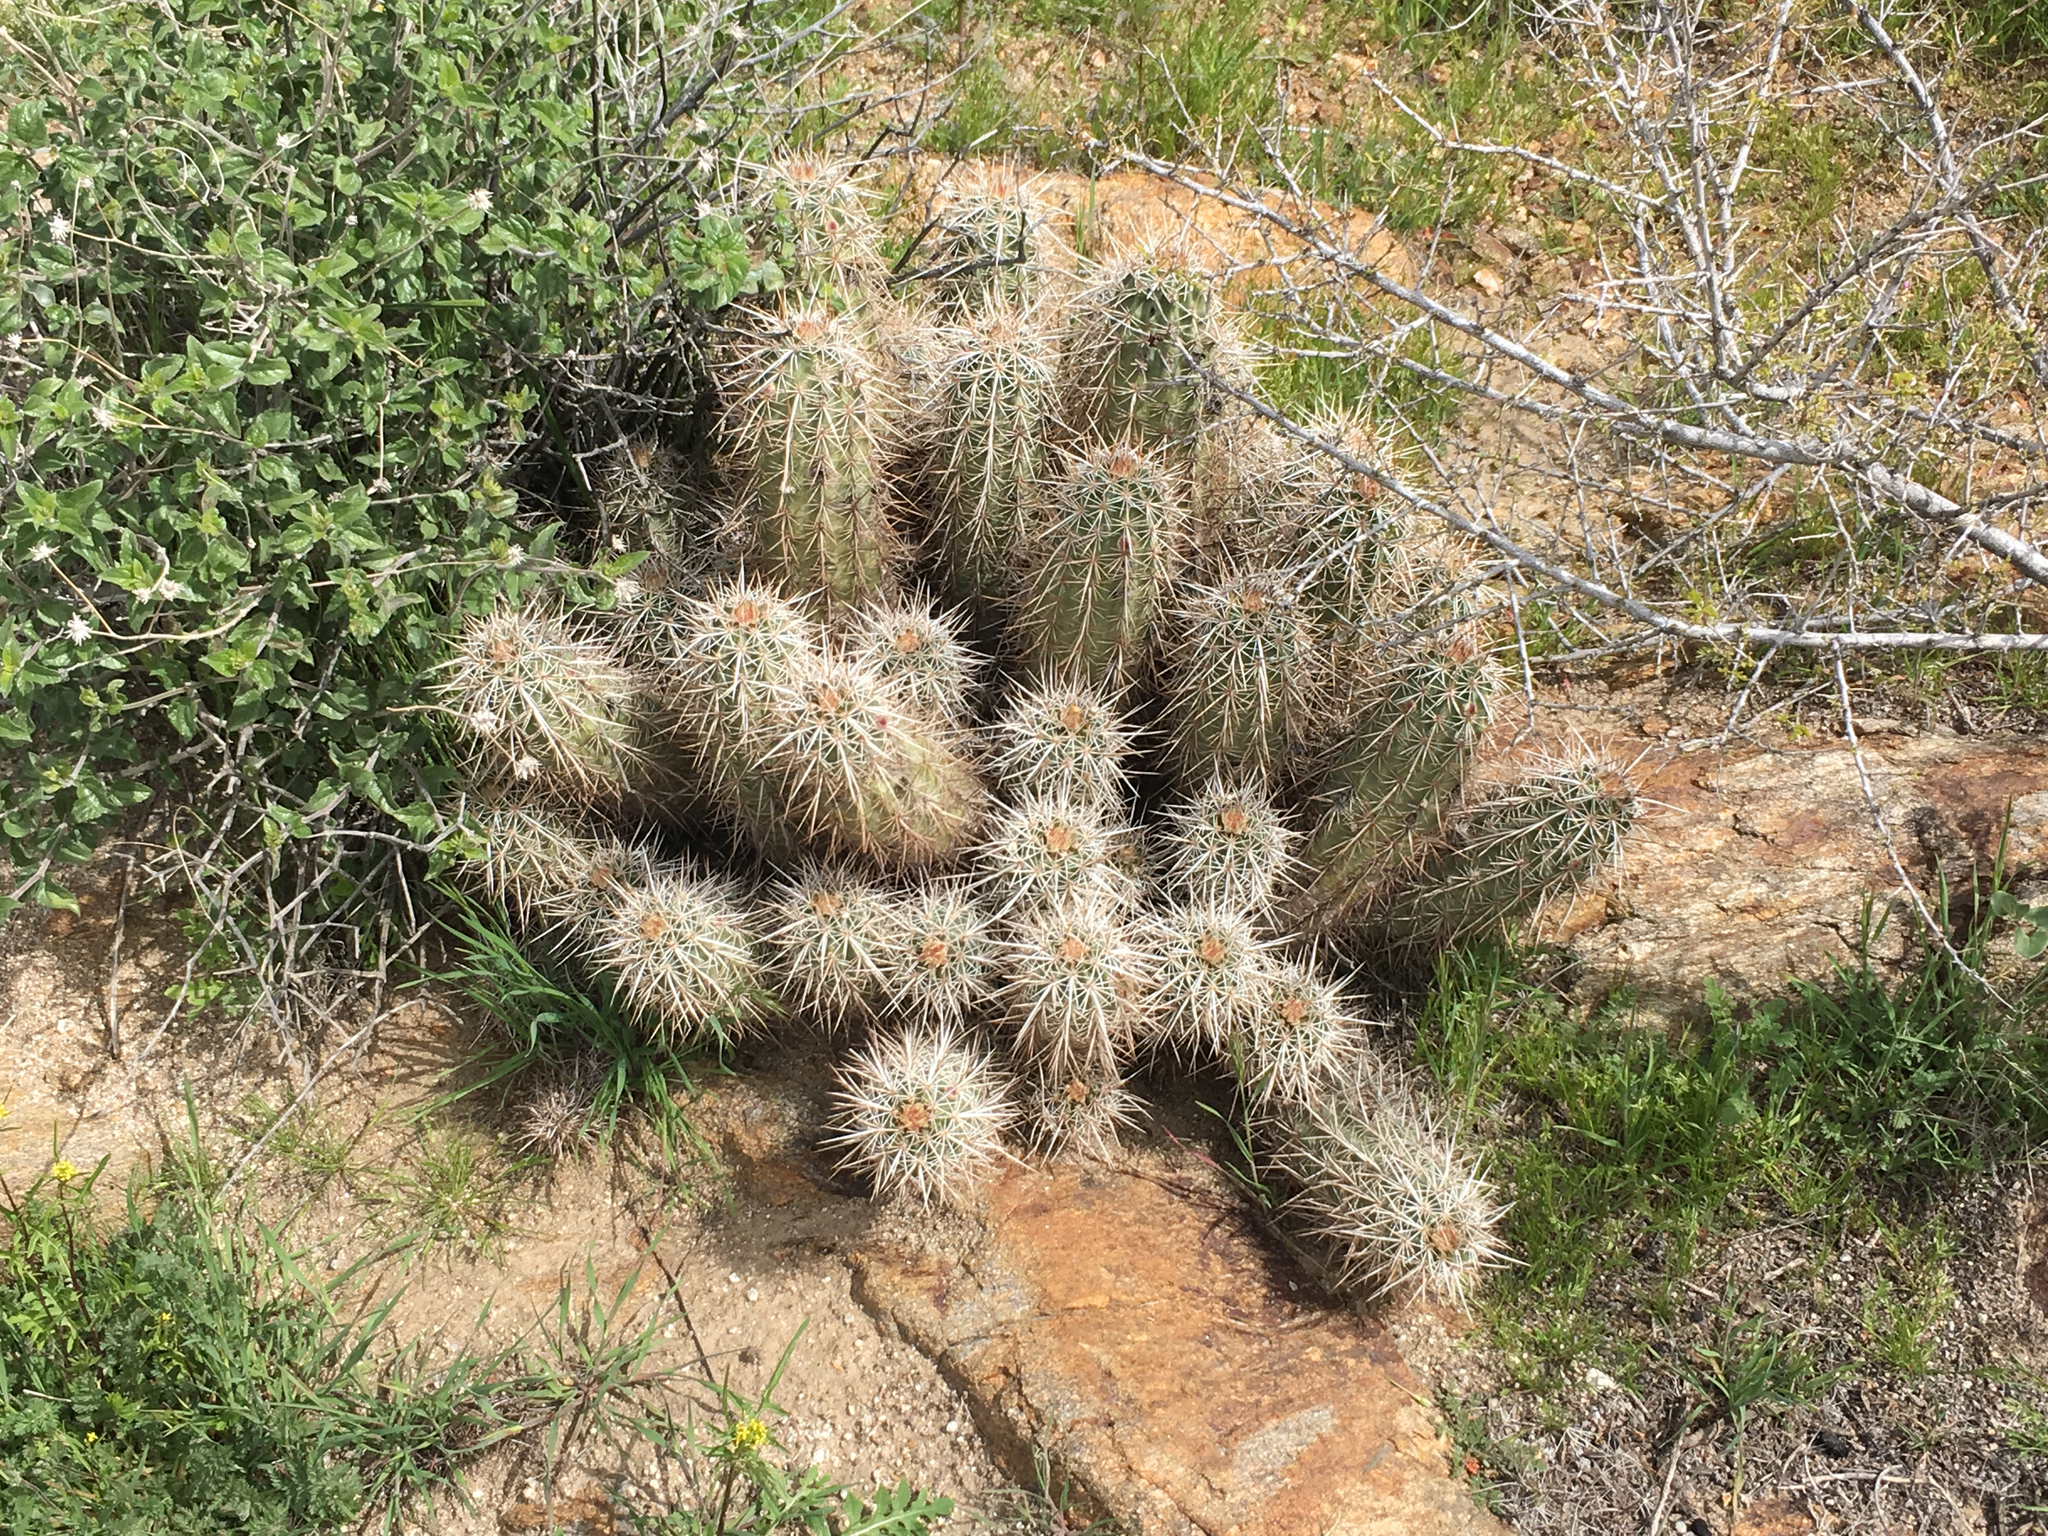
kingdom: Plantae
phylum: Tracheophyta
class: Magnoliopsida
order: Caryophyllales
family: Cactaceae
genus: Echinocereus
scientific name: Echinocereus engelmannii
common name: Engelmann's hedgehog cactus
